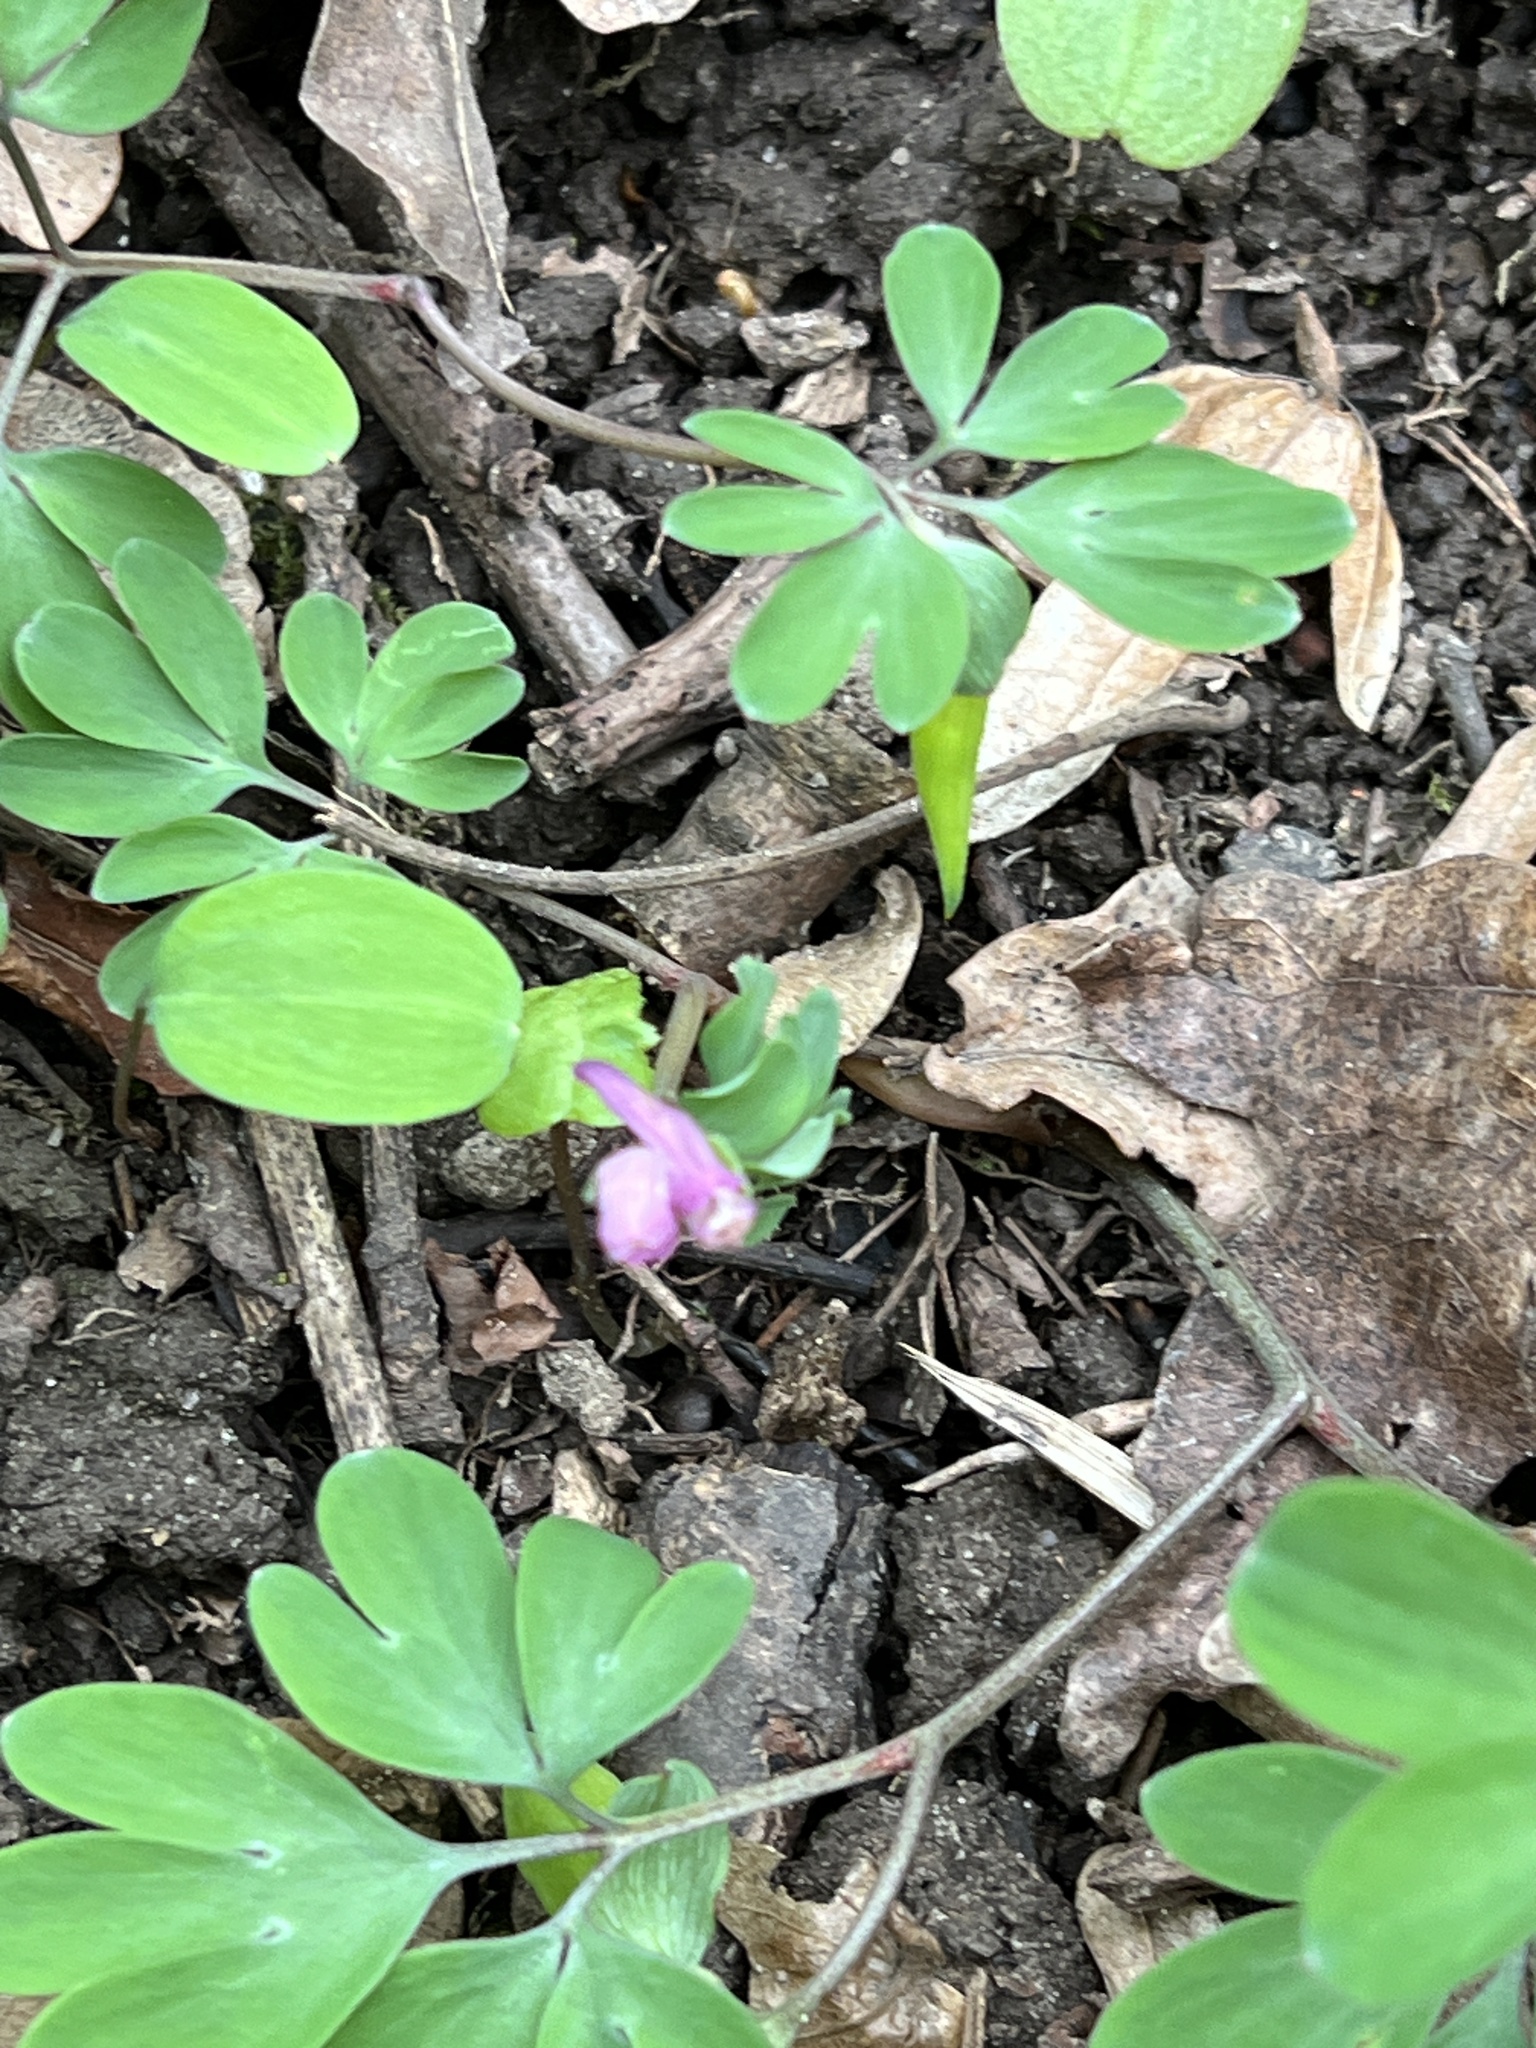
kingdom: Plantae
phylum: Tracheophyta
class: Magnoliopsida
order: Ranunculales
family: Papaveraceae
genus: Corydalis
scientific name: Corydalis intermedia
